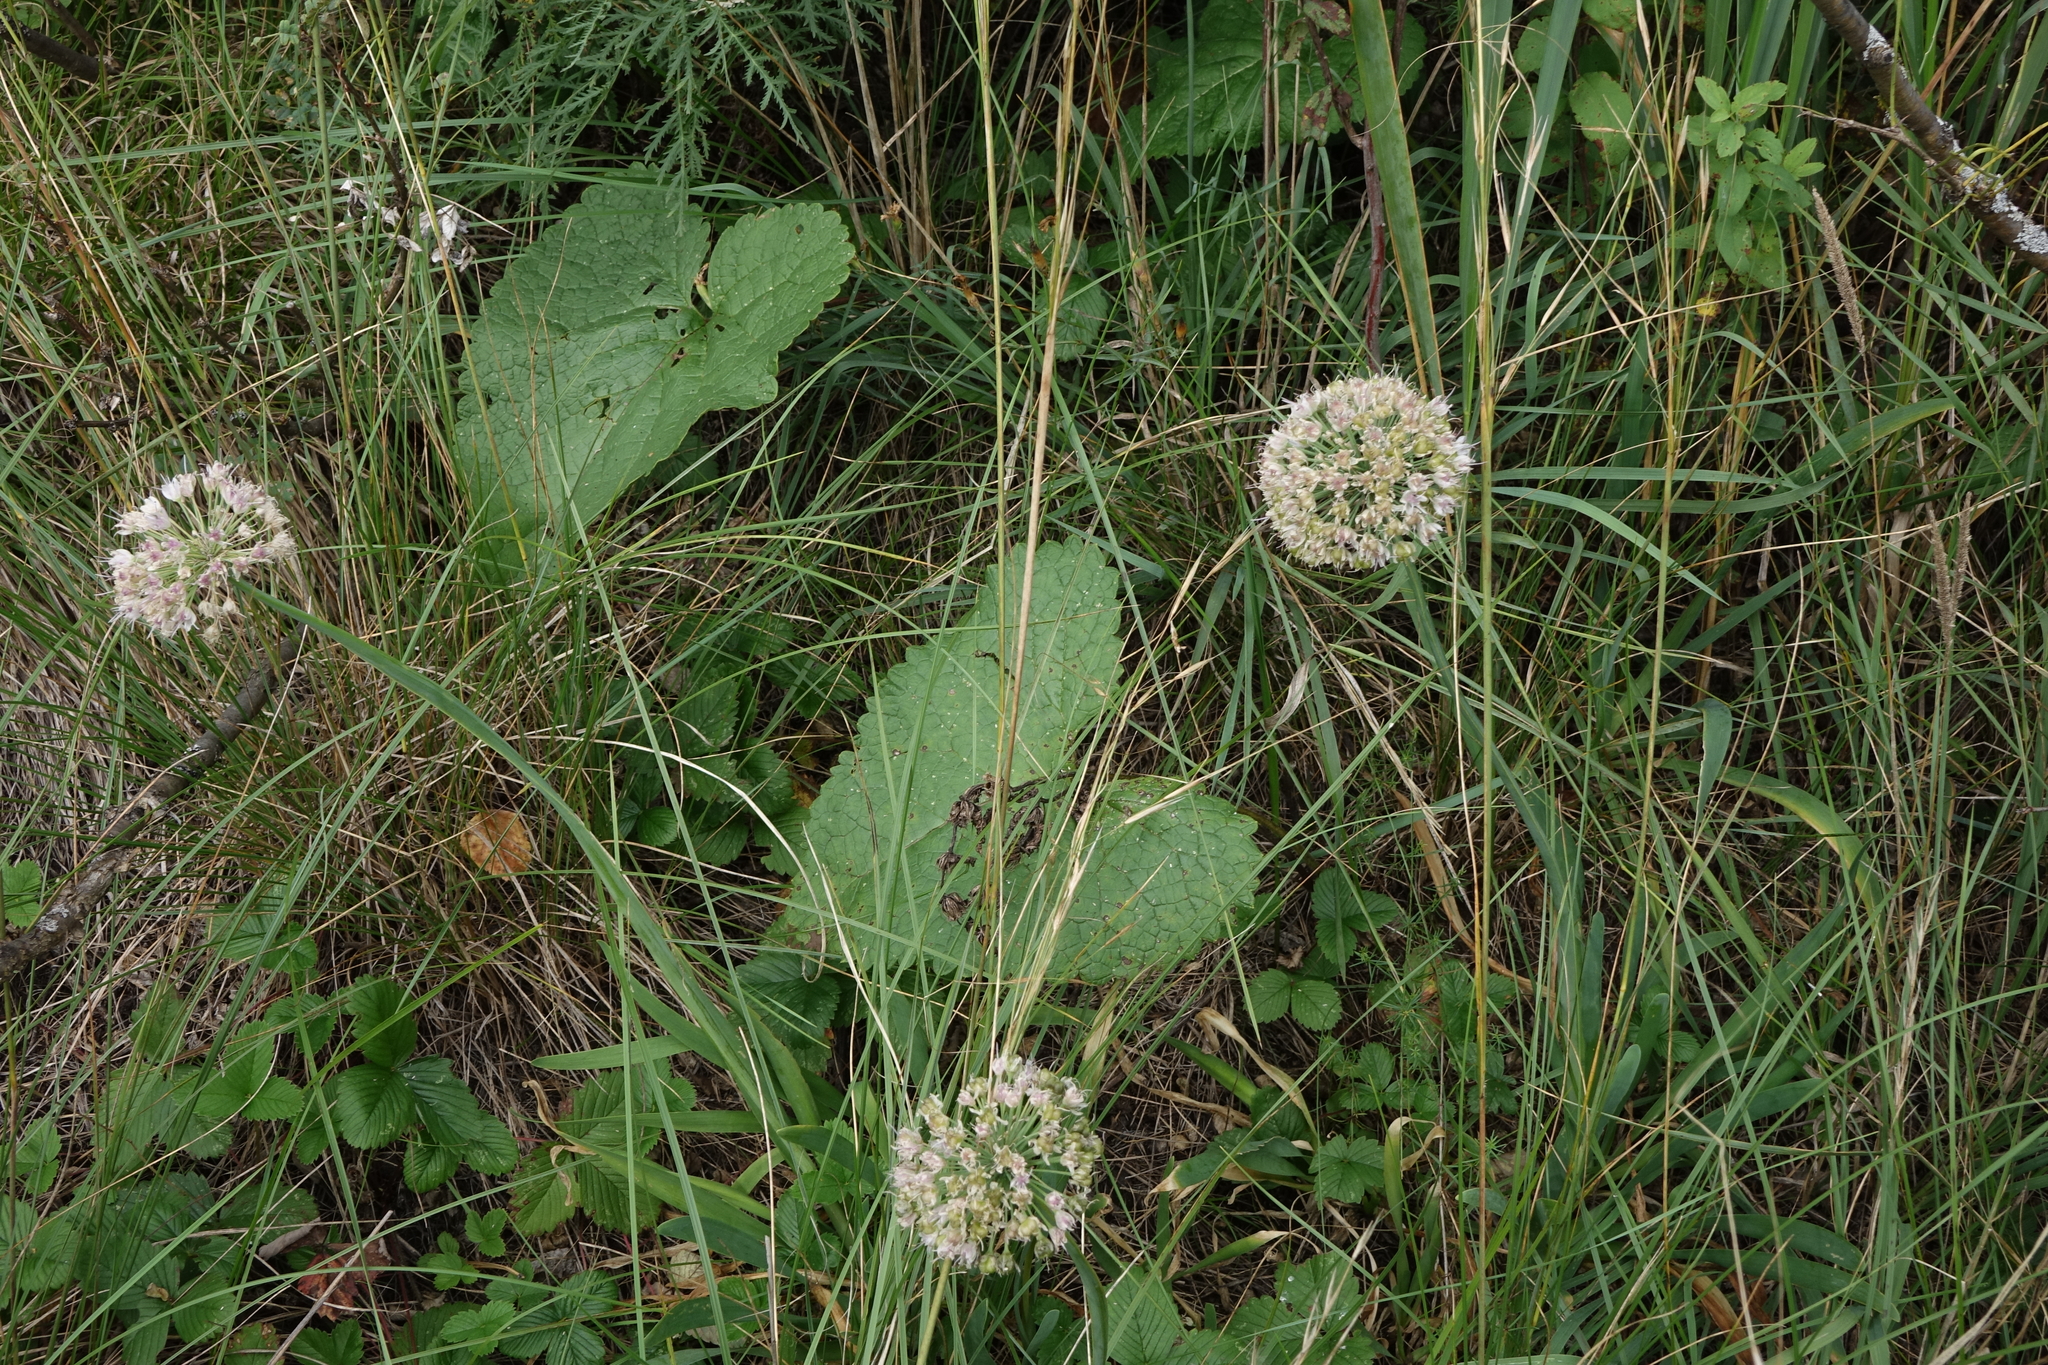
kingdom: Plantae
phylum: Tracheophyta
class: Magnoliopsida
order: Lamiales
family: Lamiaceae
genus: Phlomoides
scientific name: Phlomoides tuberosa
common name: Tuberous jerusalem sage
